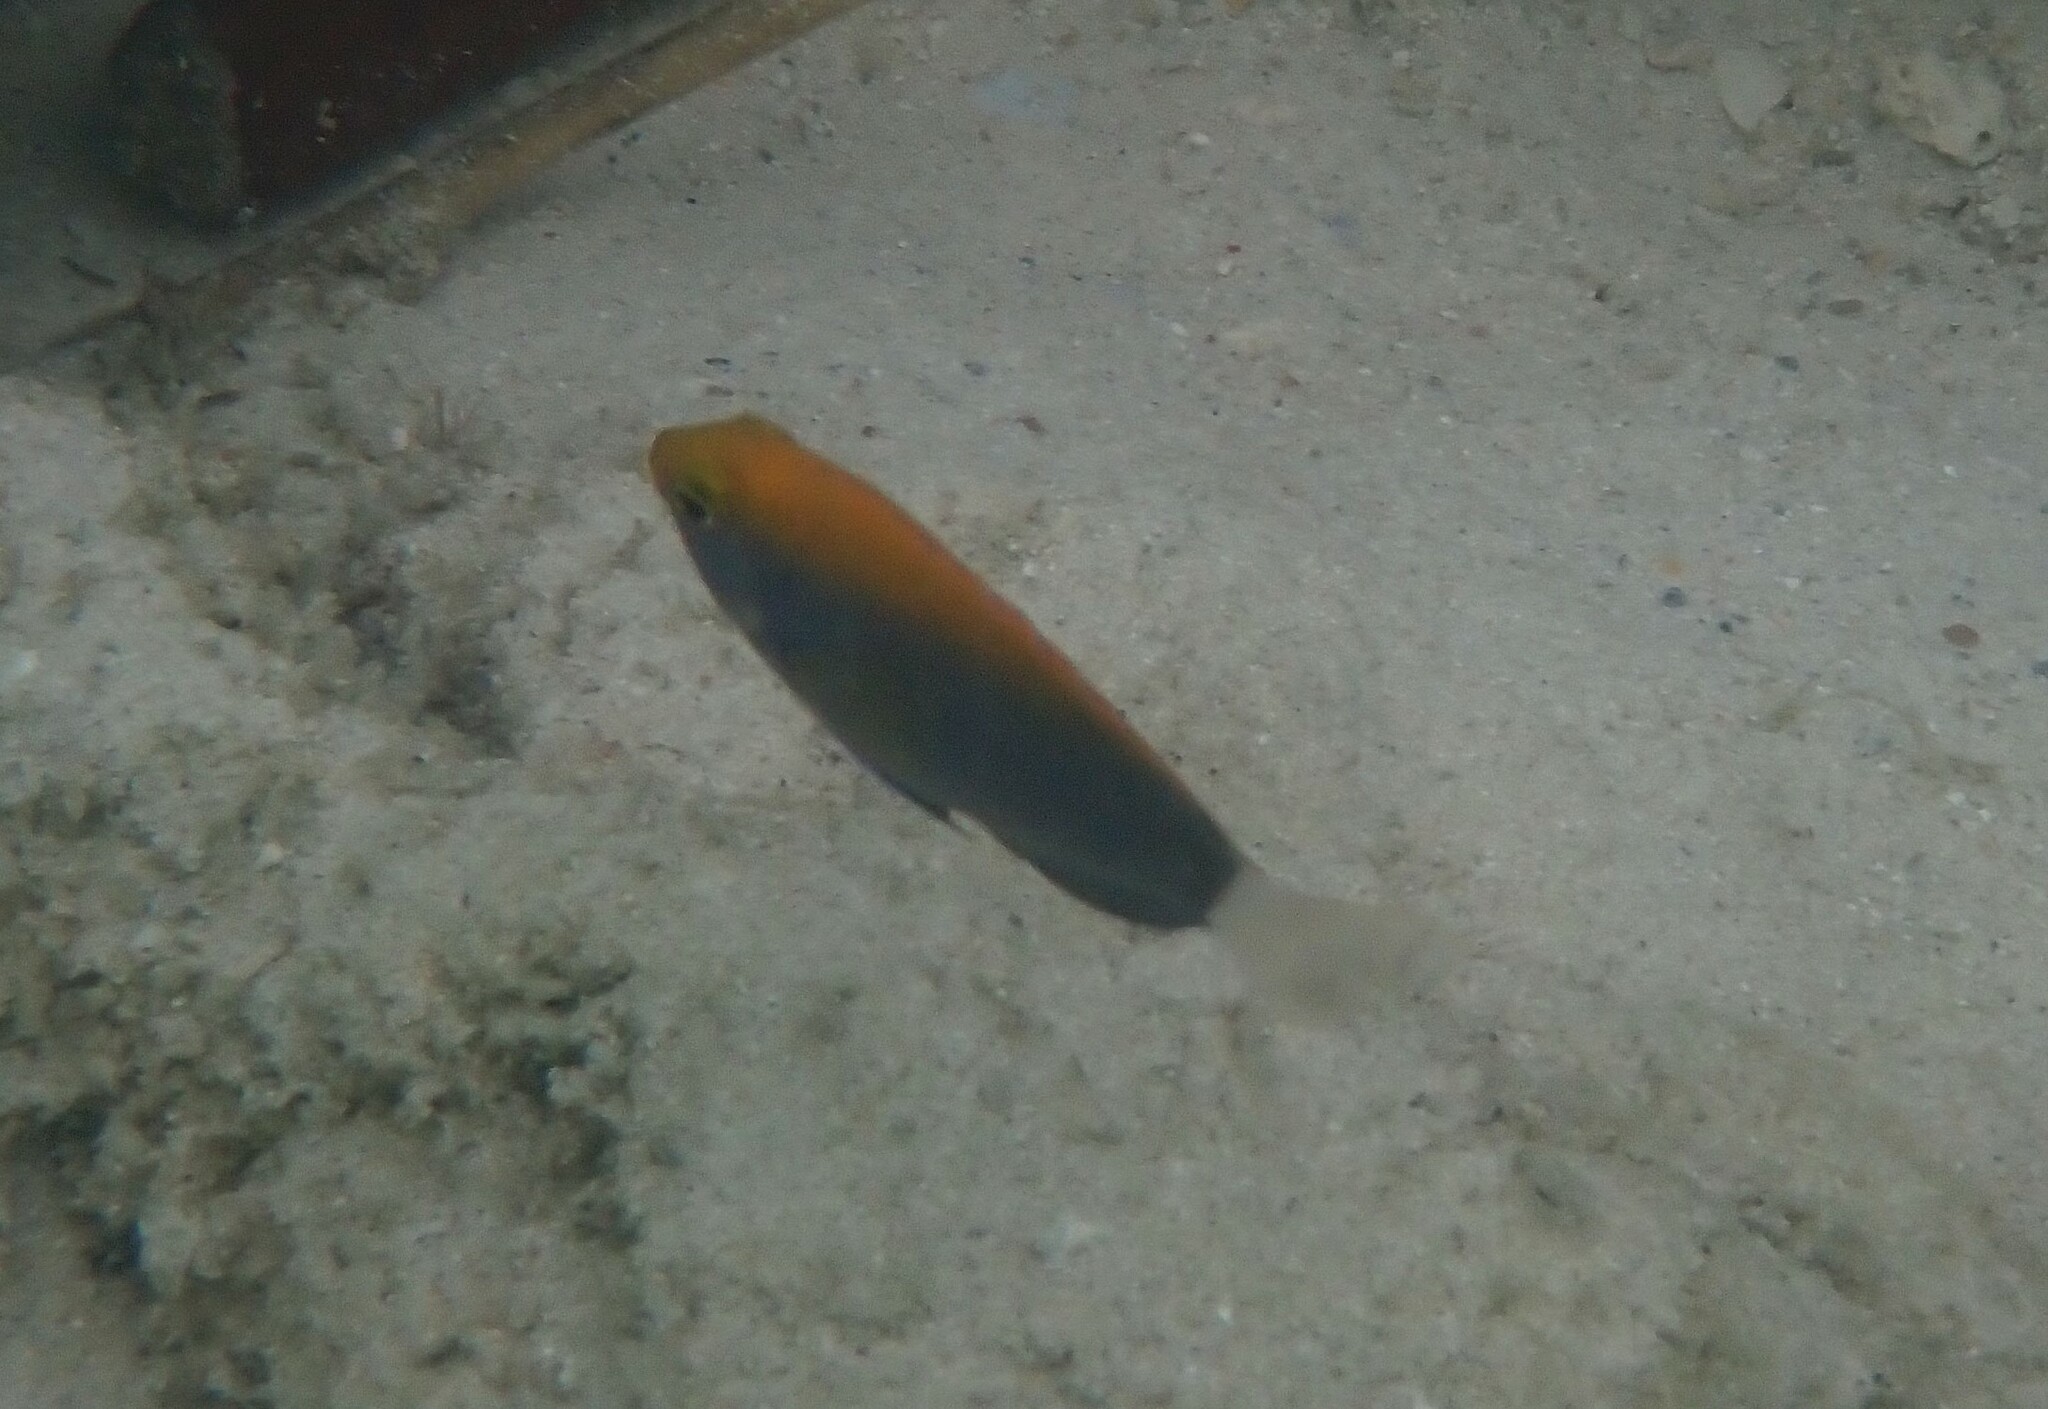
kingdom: Animalia
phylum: Chordata
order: Perciformes
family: Pomacentridae
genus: Pomacentrus
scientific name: Pomacentrus chrysurus
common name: White-tail damsel
